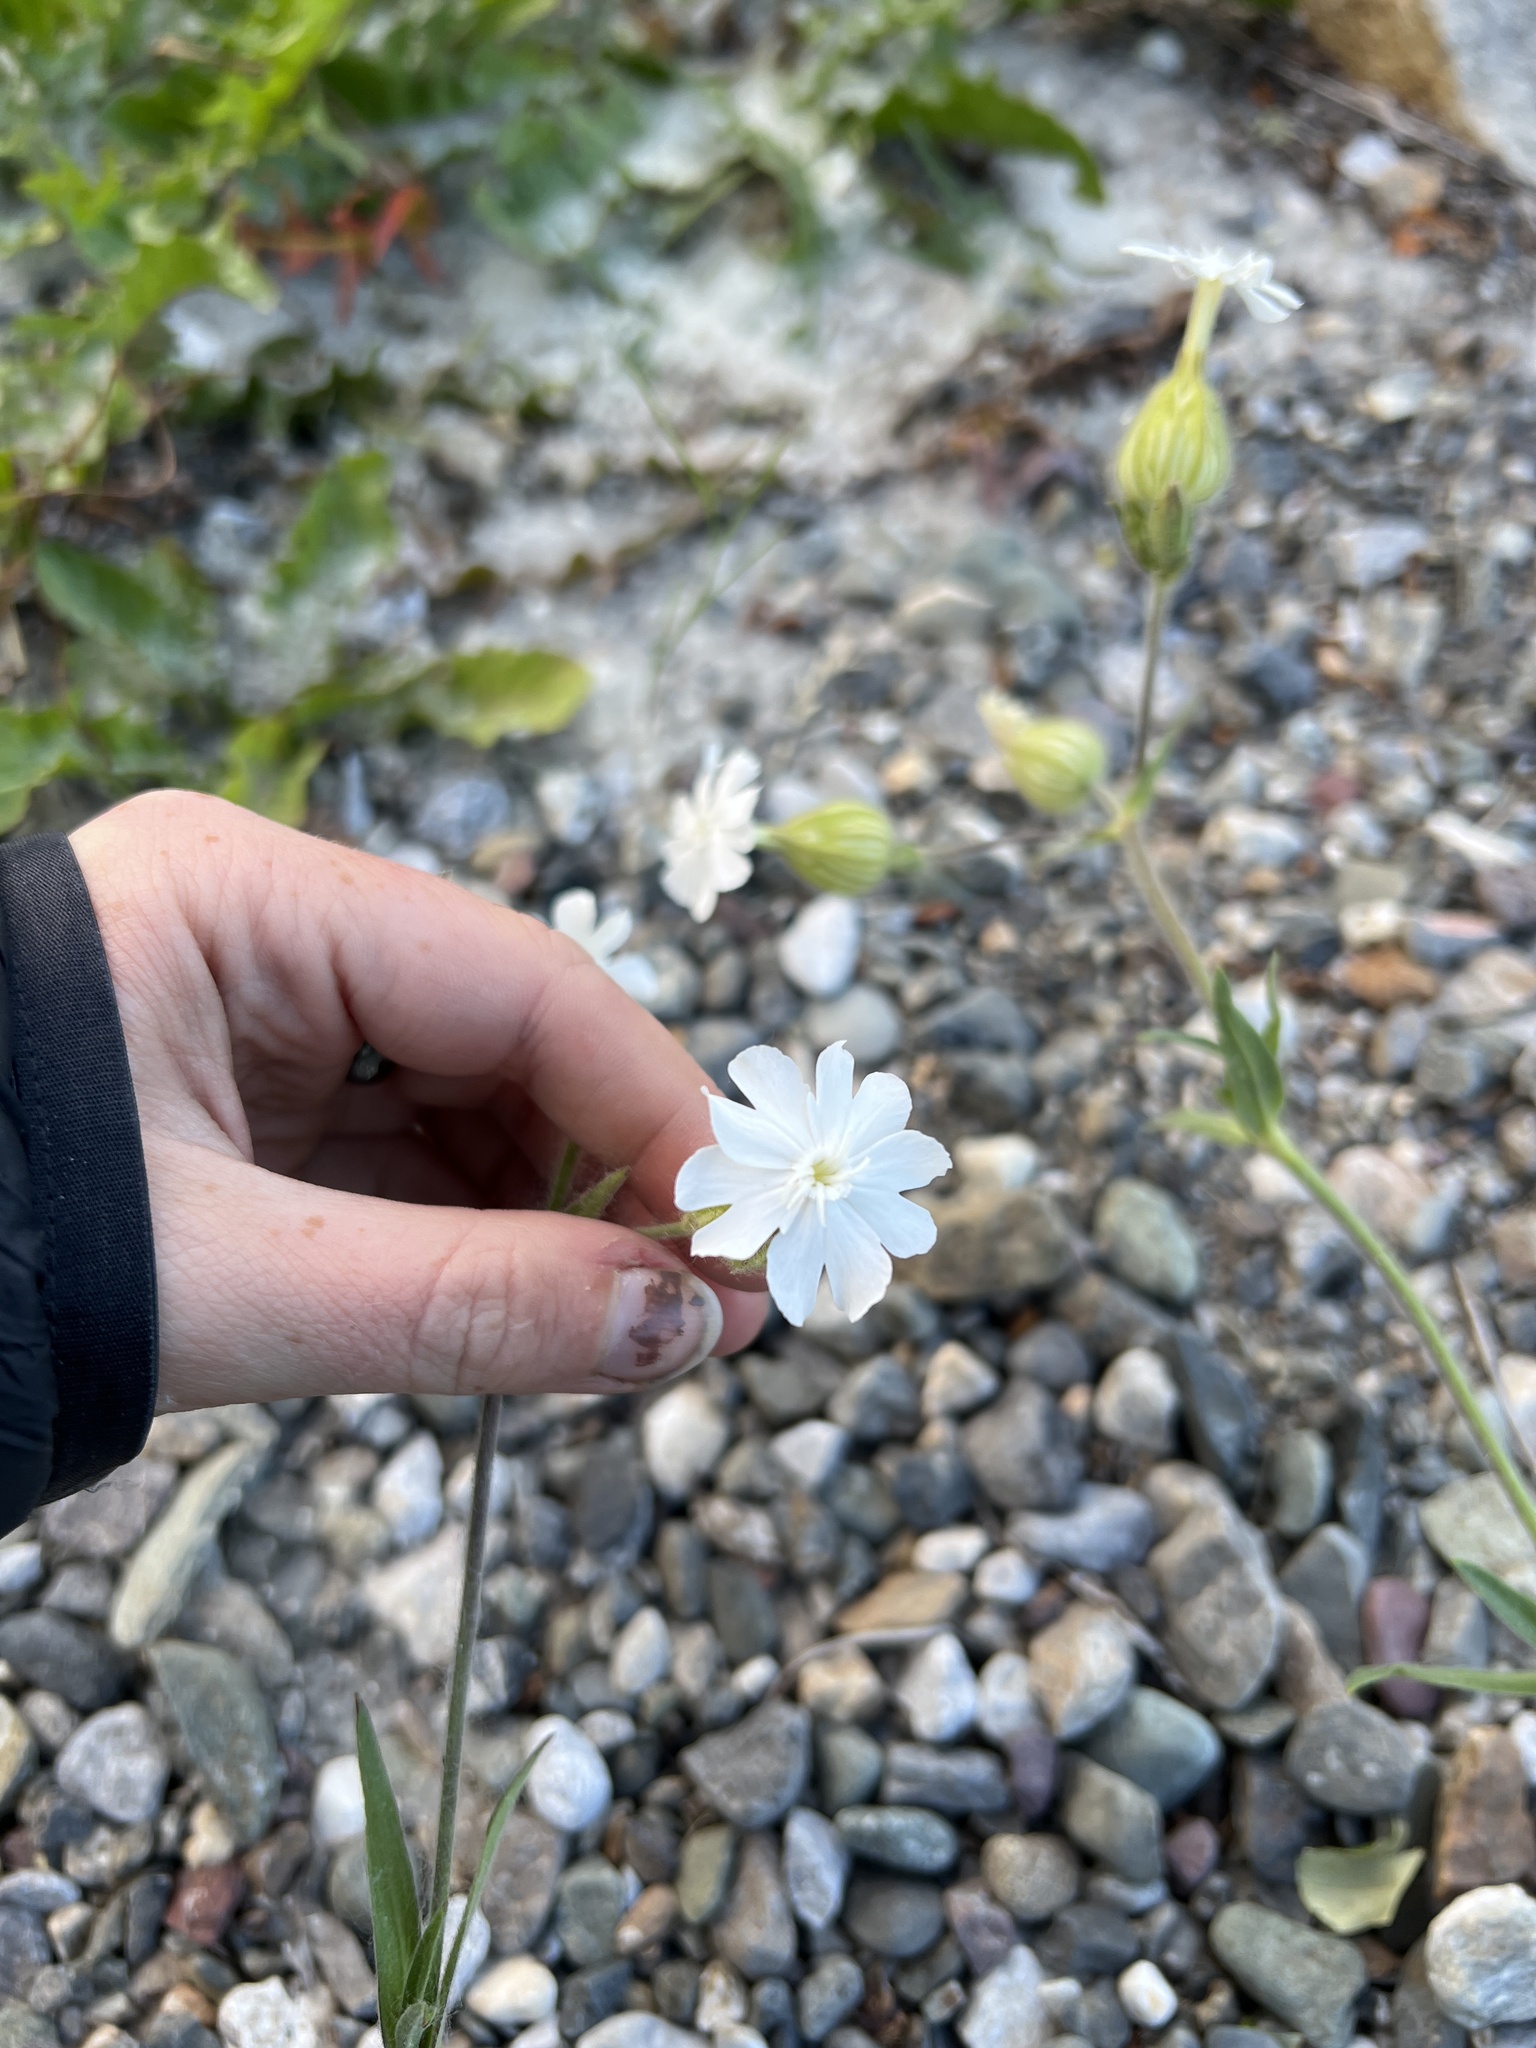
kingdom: Plantae
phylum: Tracheophyta
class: Magnoliopsida
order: Caryophyllales
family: Caryophyllaceae
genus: Silene
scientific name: Silene latifolia
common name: White campion
